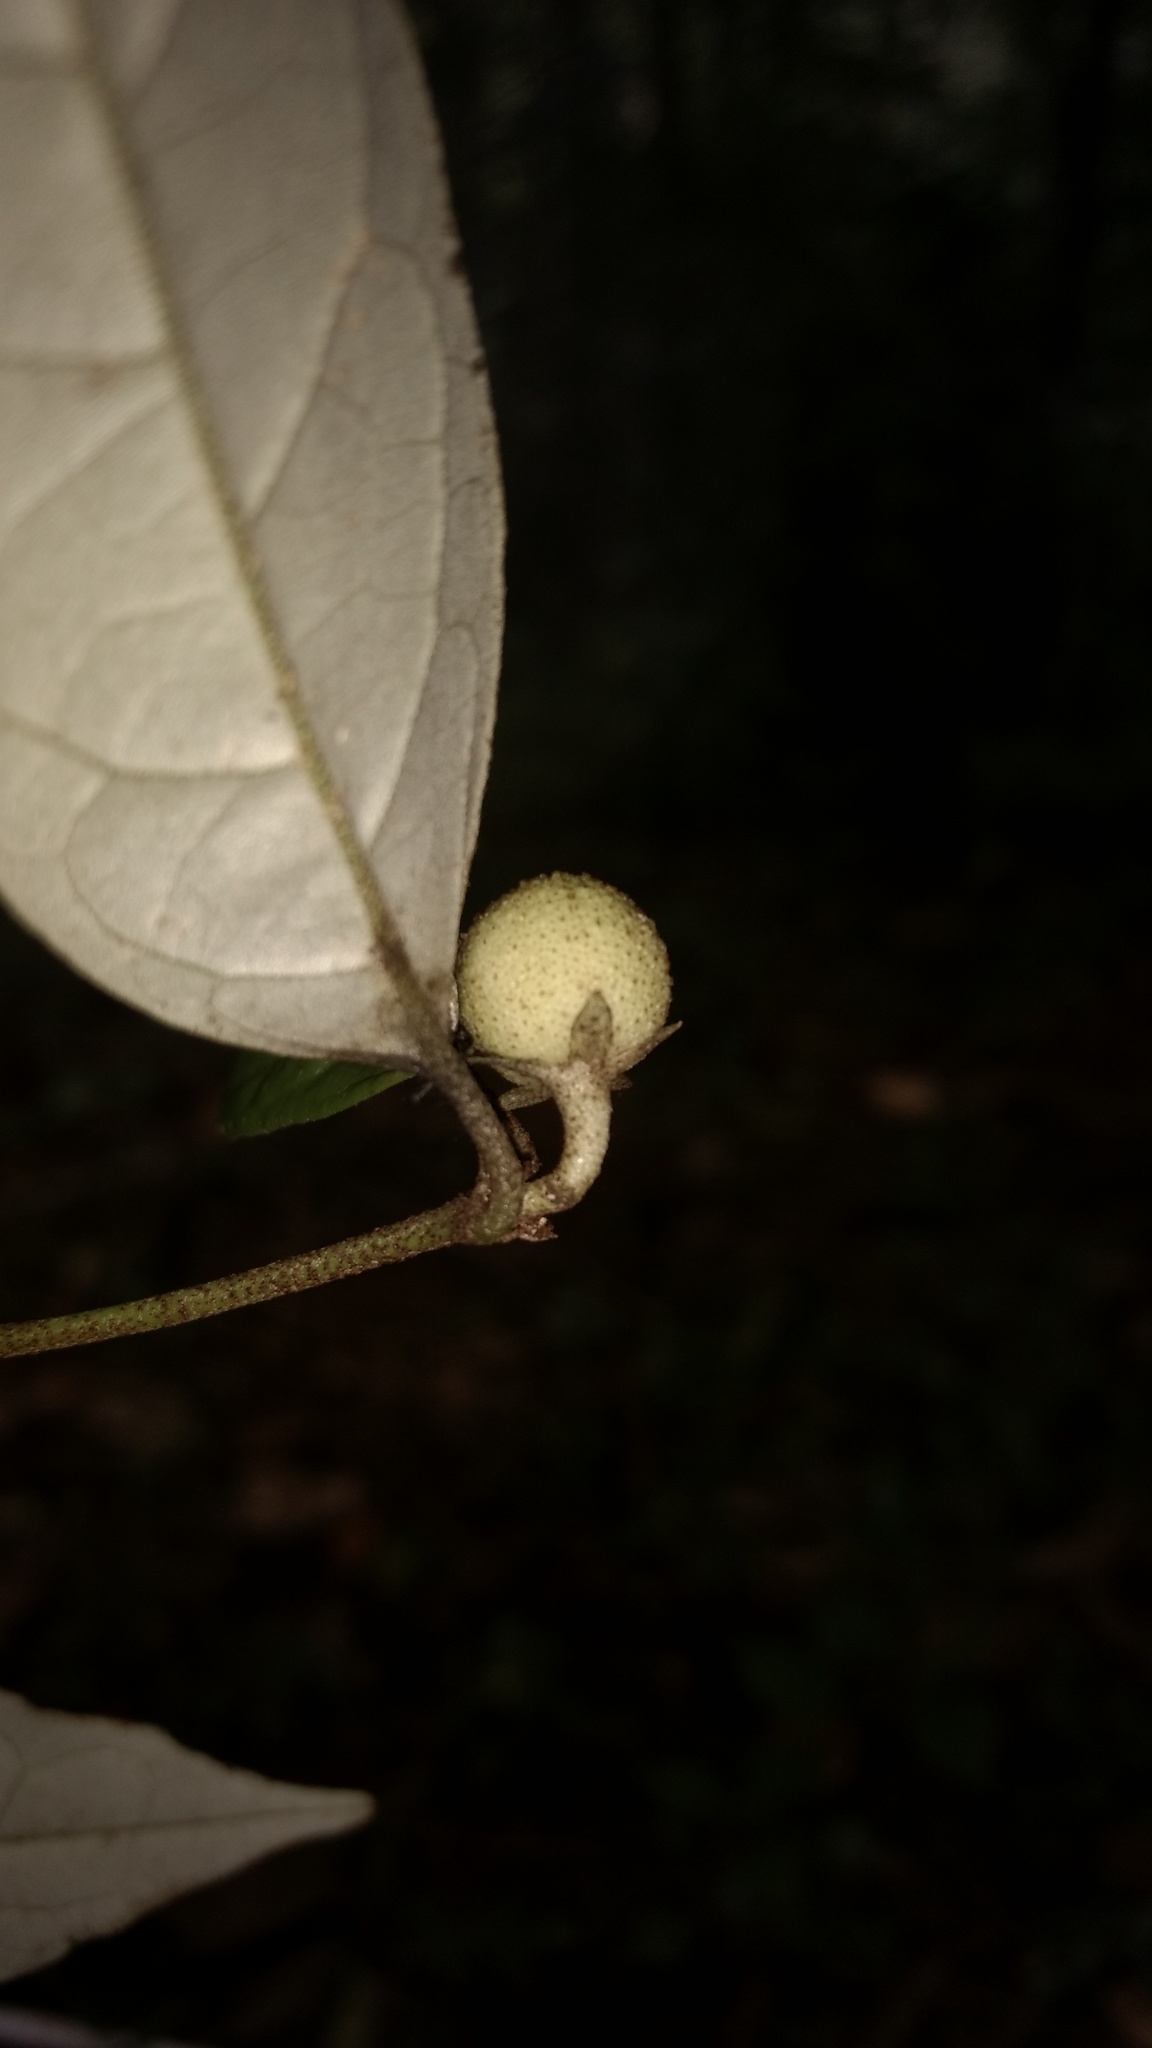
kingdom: Plantae
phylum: Tracheophyta
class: Magnoliopsida
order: Malpighiales
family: Euphorbiaceae
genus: Croton
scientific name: Croton zeylanicus
